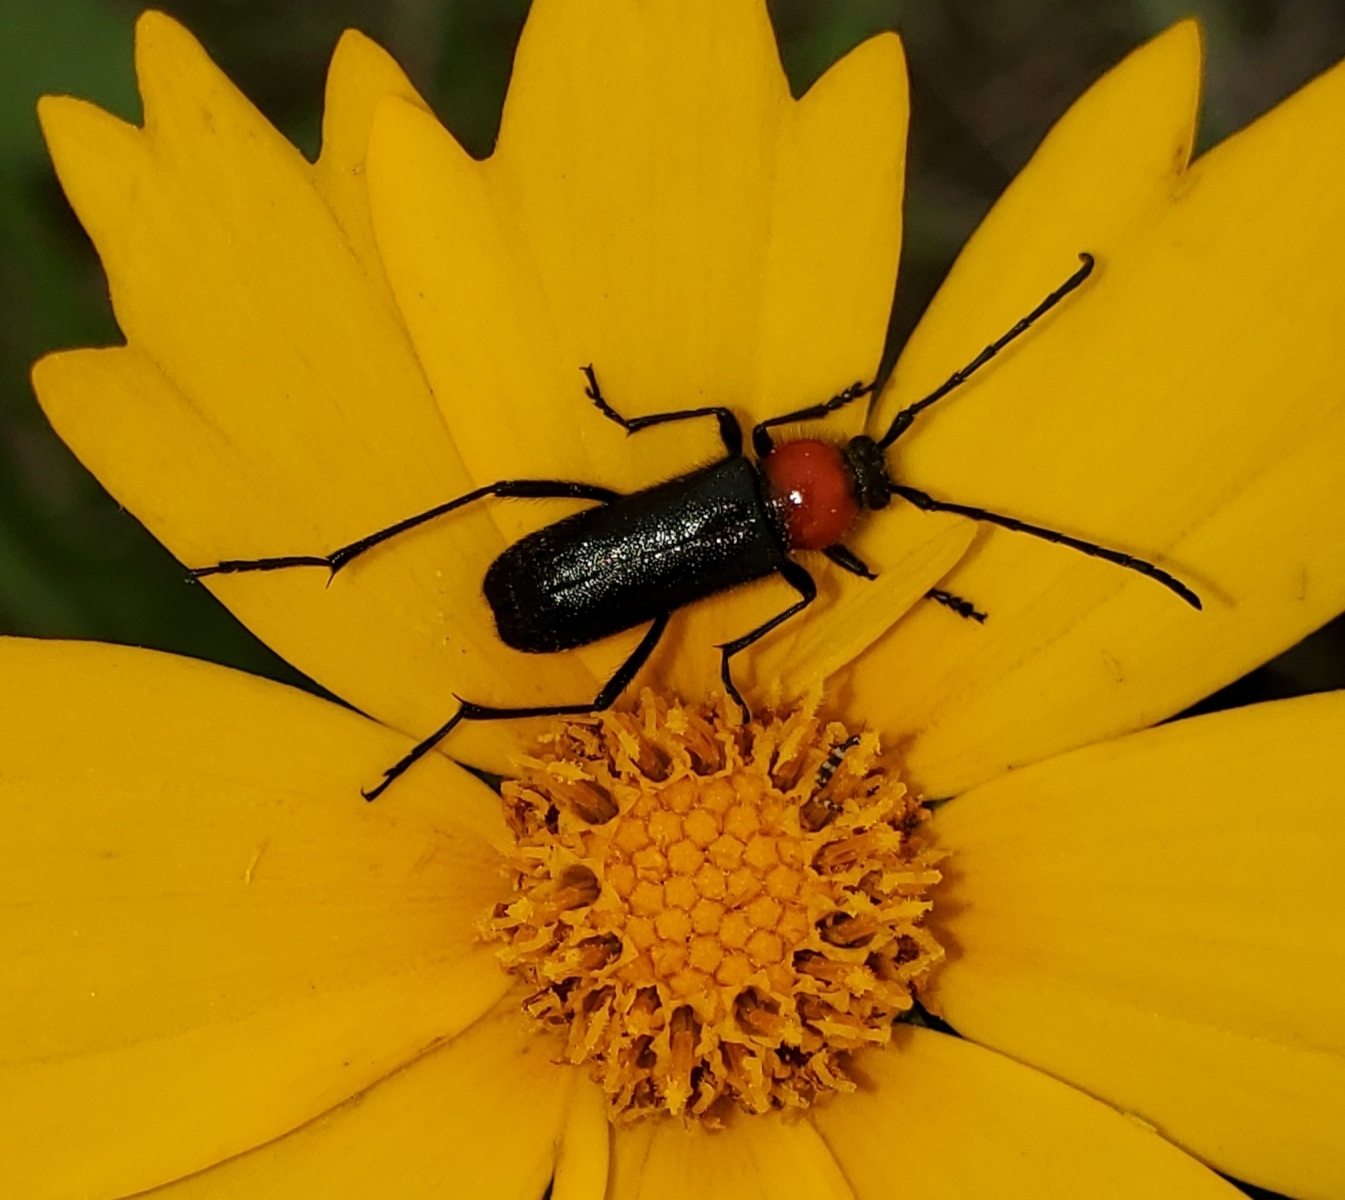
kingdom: Animalia
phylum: Arthropoda
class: Insecta
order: Coleoptera
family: Cerambycidae
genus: Batyle
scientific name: Batyle ignicollis
